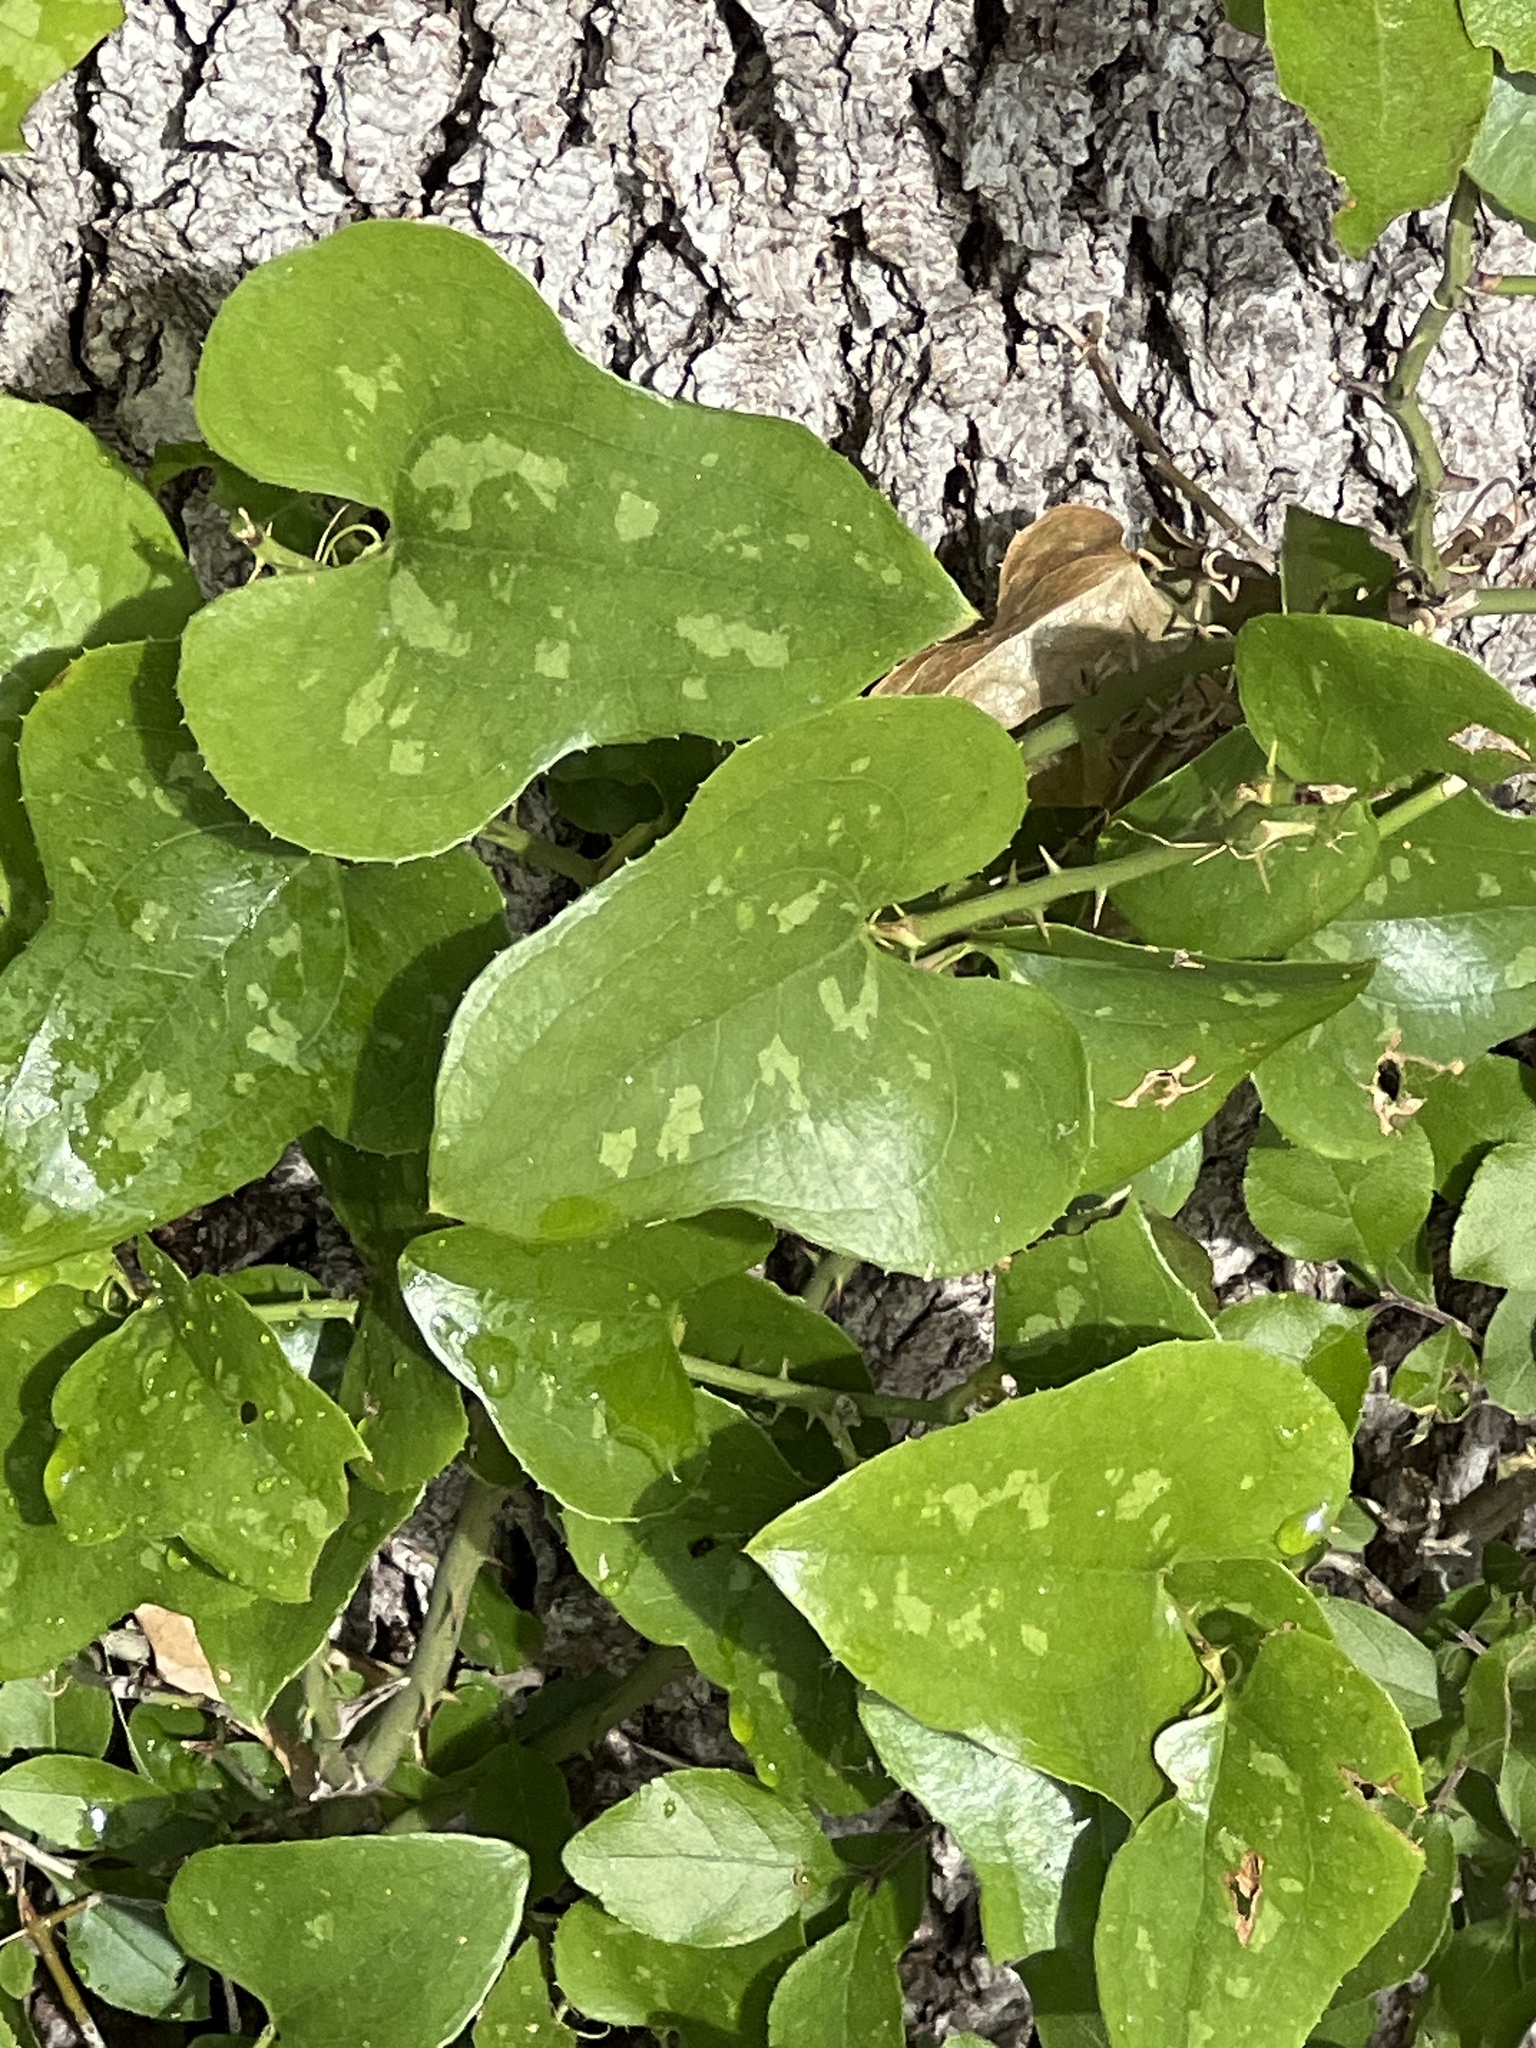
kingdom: Plantae
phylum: Tracheophyta
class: Liliopsida
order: Liliales
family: Smilacaceae
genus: Smilax
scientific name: Smilax bona-nox
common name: Catbrier
